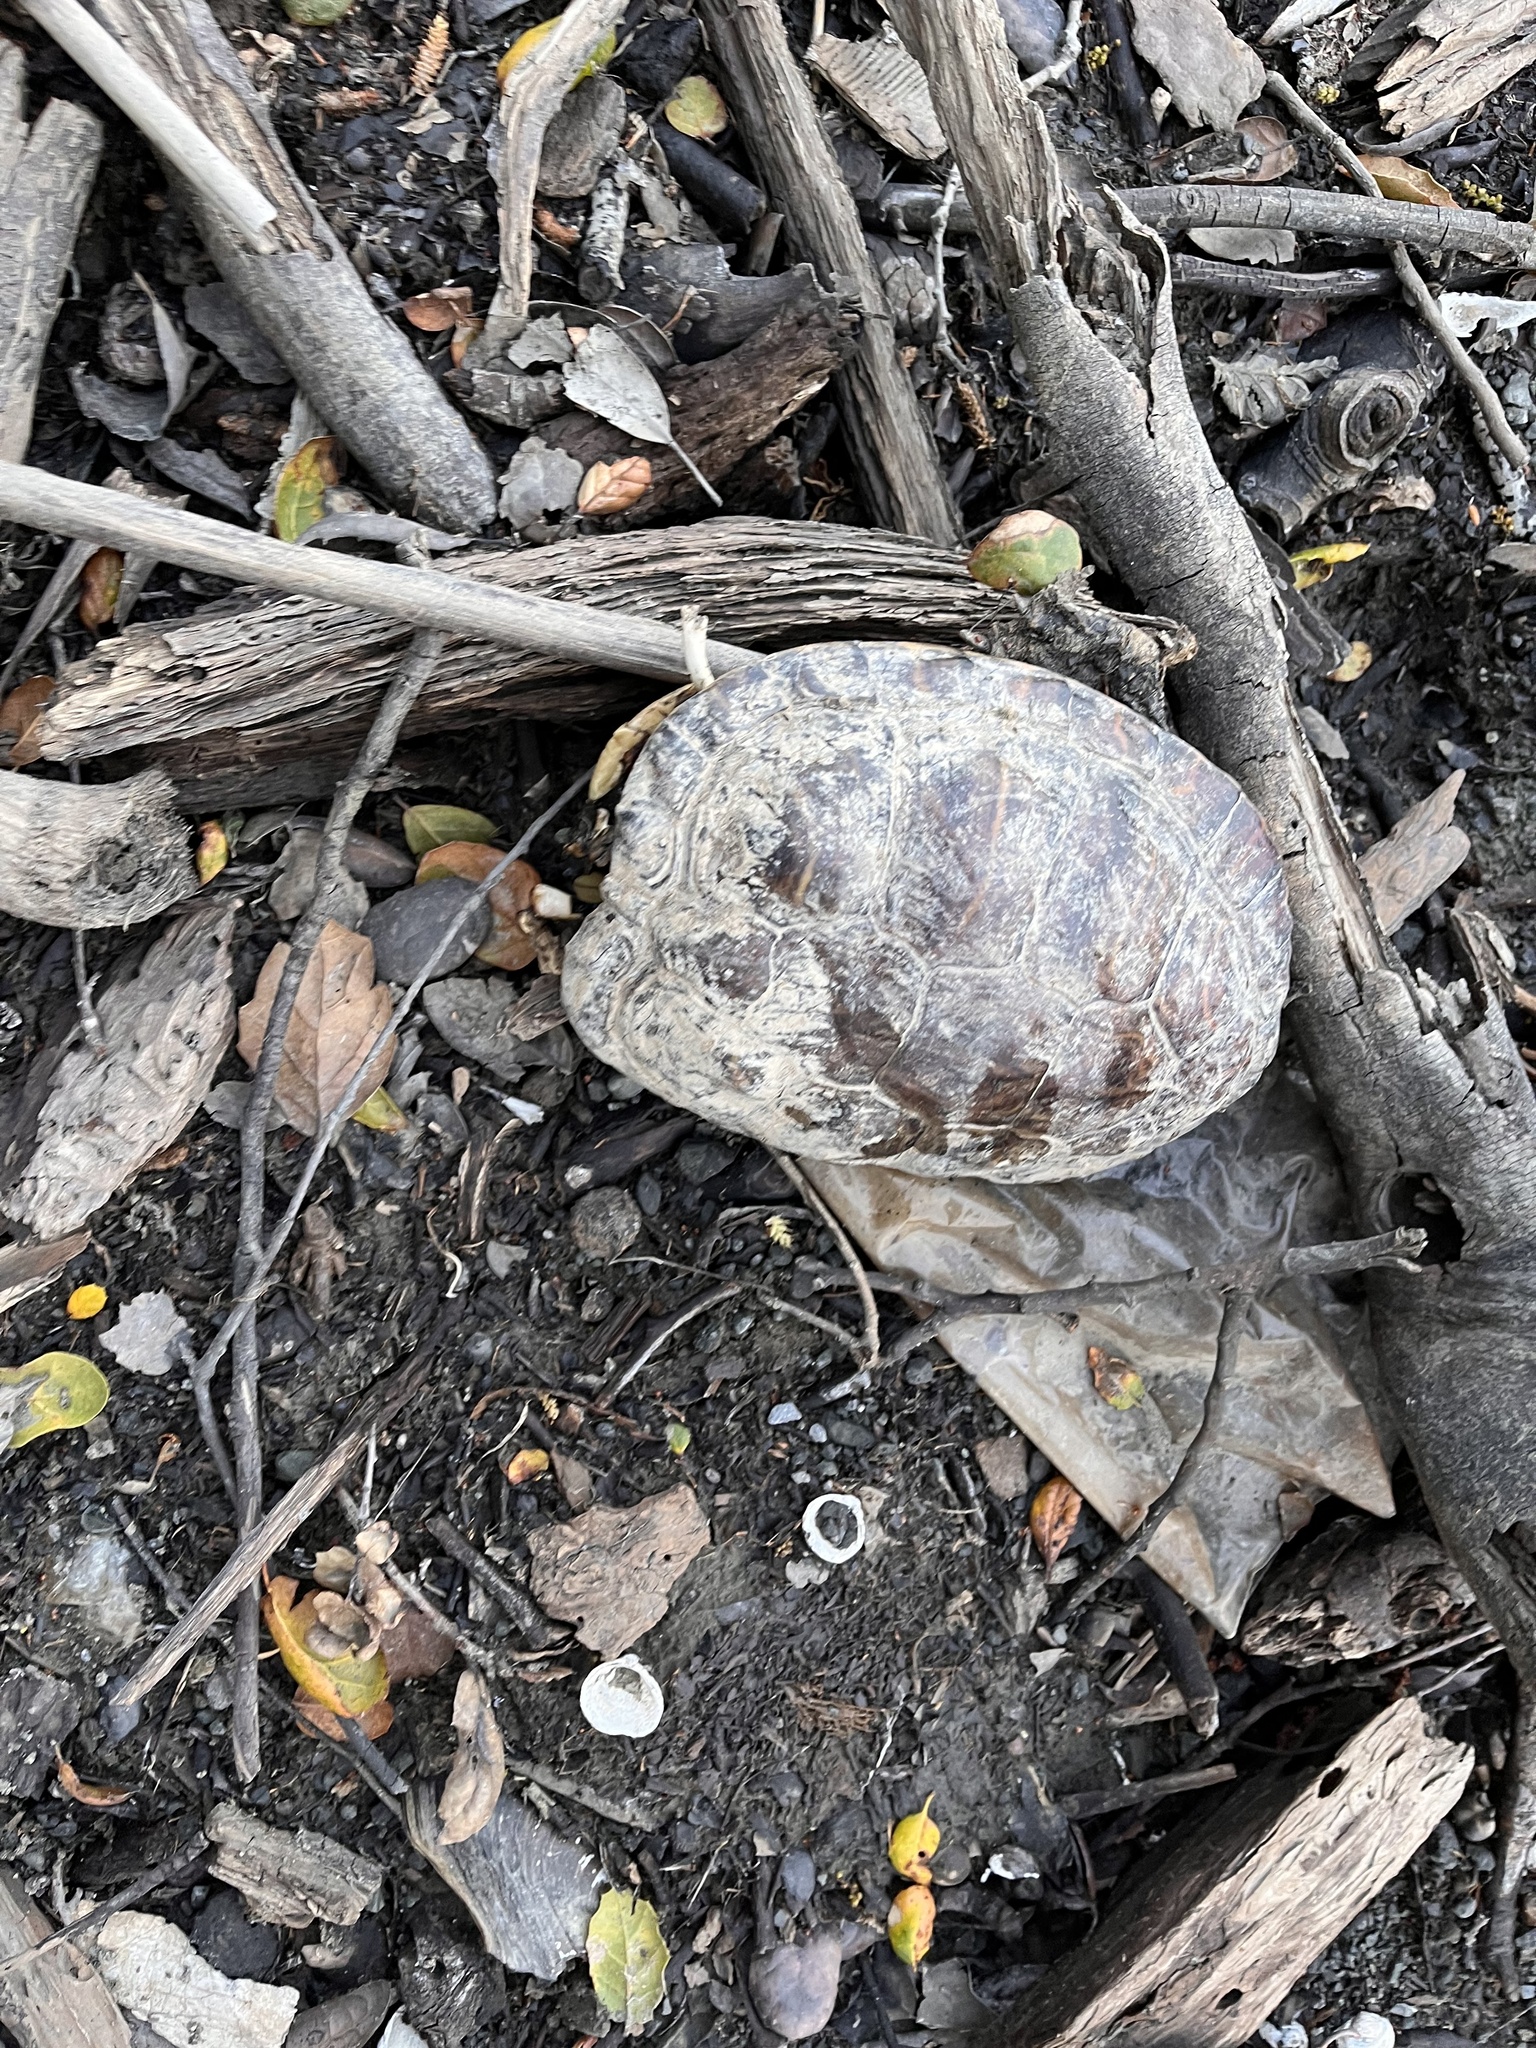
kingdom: Animalia
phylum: Chordata
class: Testudines
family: Emydidae
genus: Trachemys
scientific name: Trachemys scripta
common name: Slider
